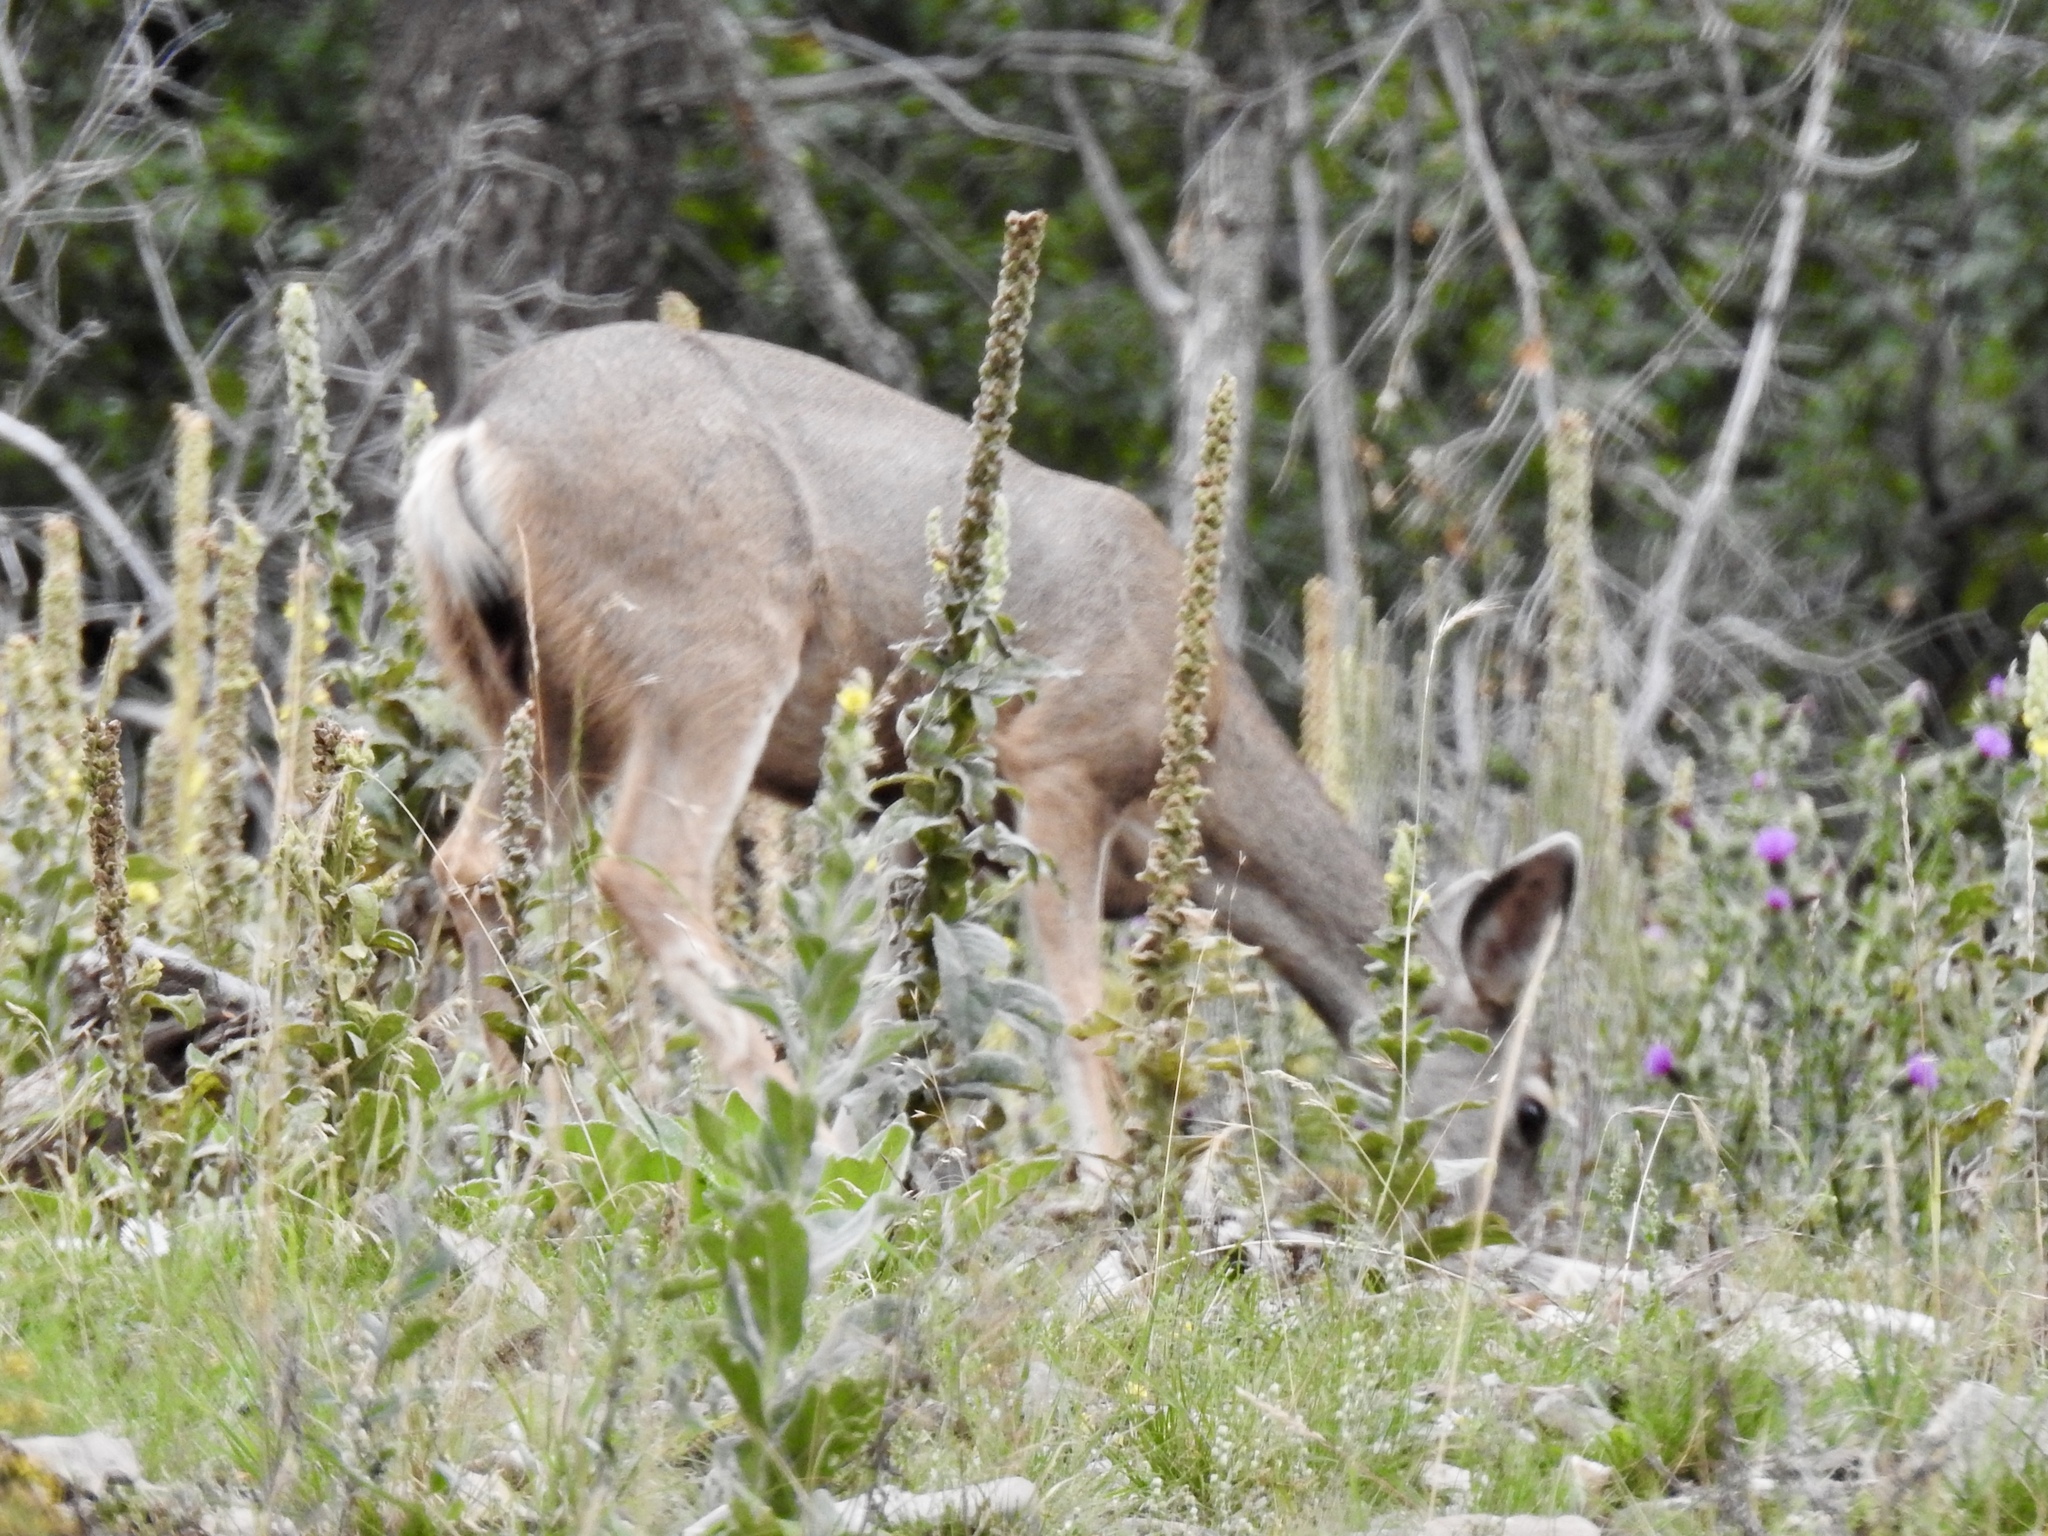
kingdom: Animalia
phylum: Chordata
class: Mammalia
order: Artiodactyla
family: Cervidae
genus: Odocoileus
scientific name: Odocoileus hemionus
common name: Mule deer
